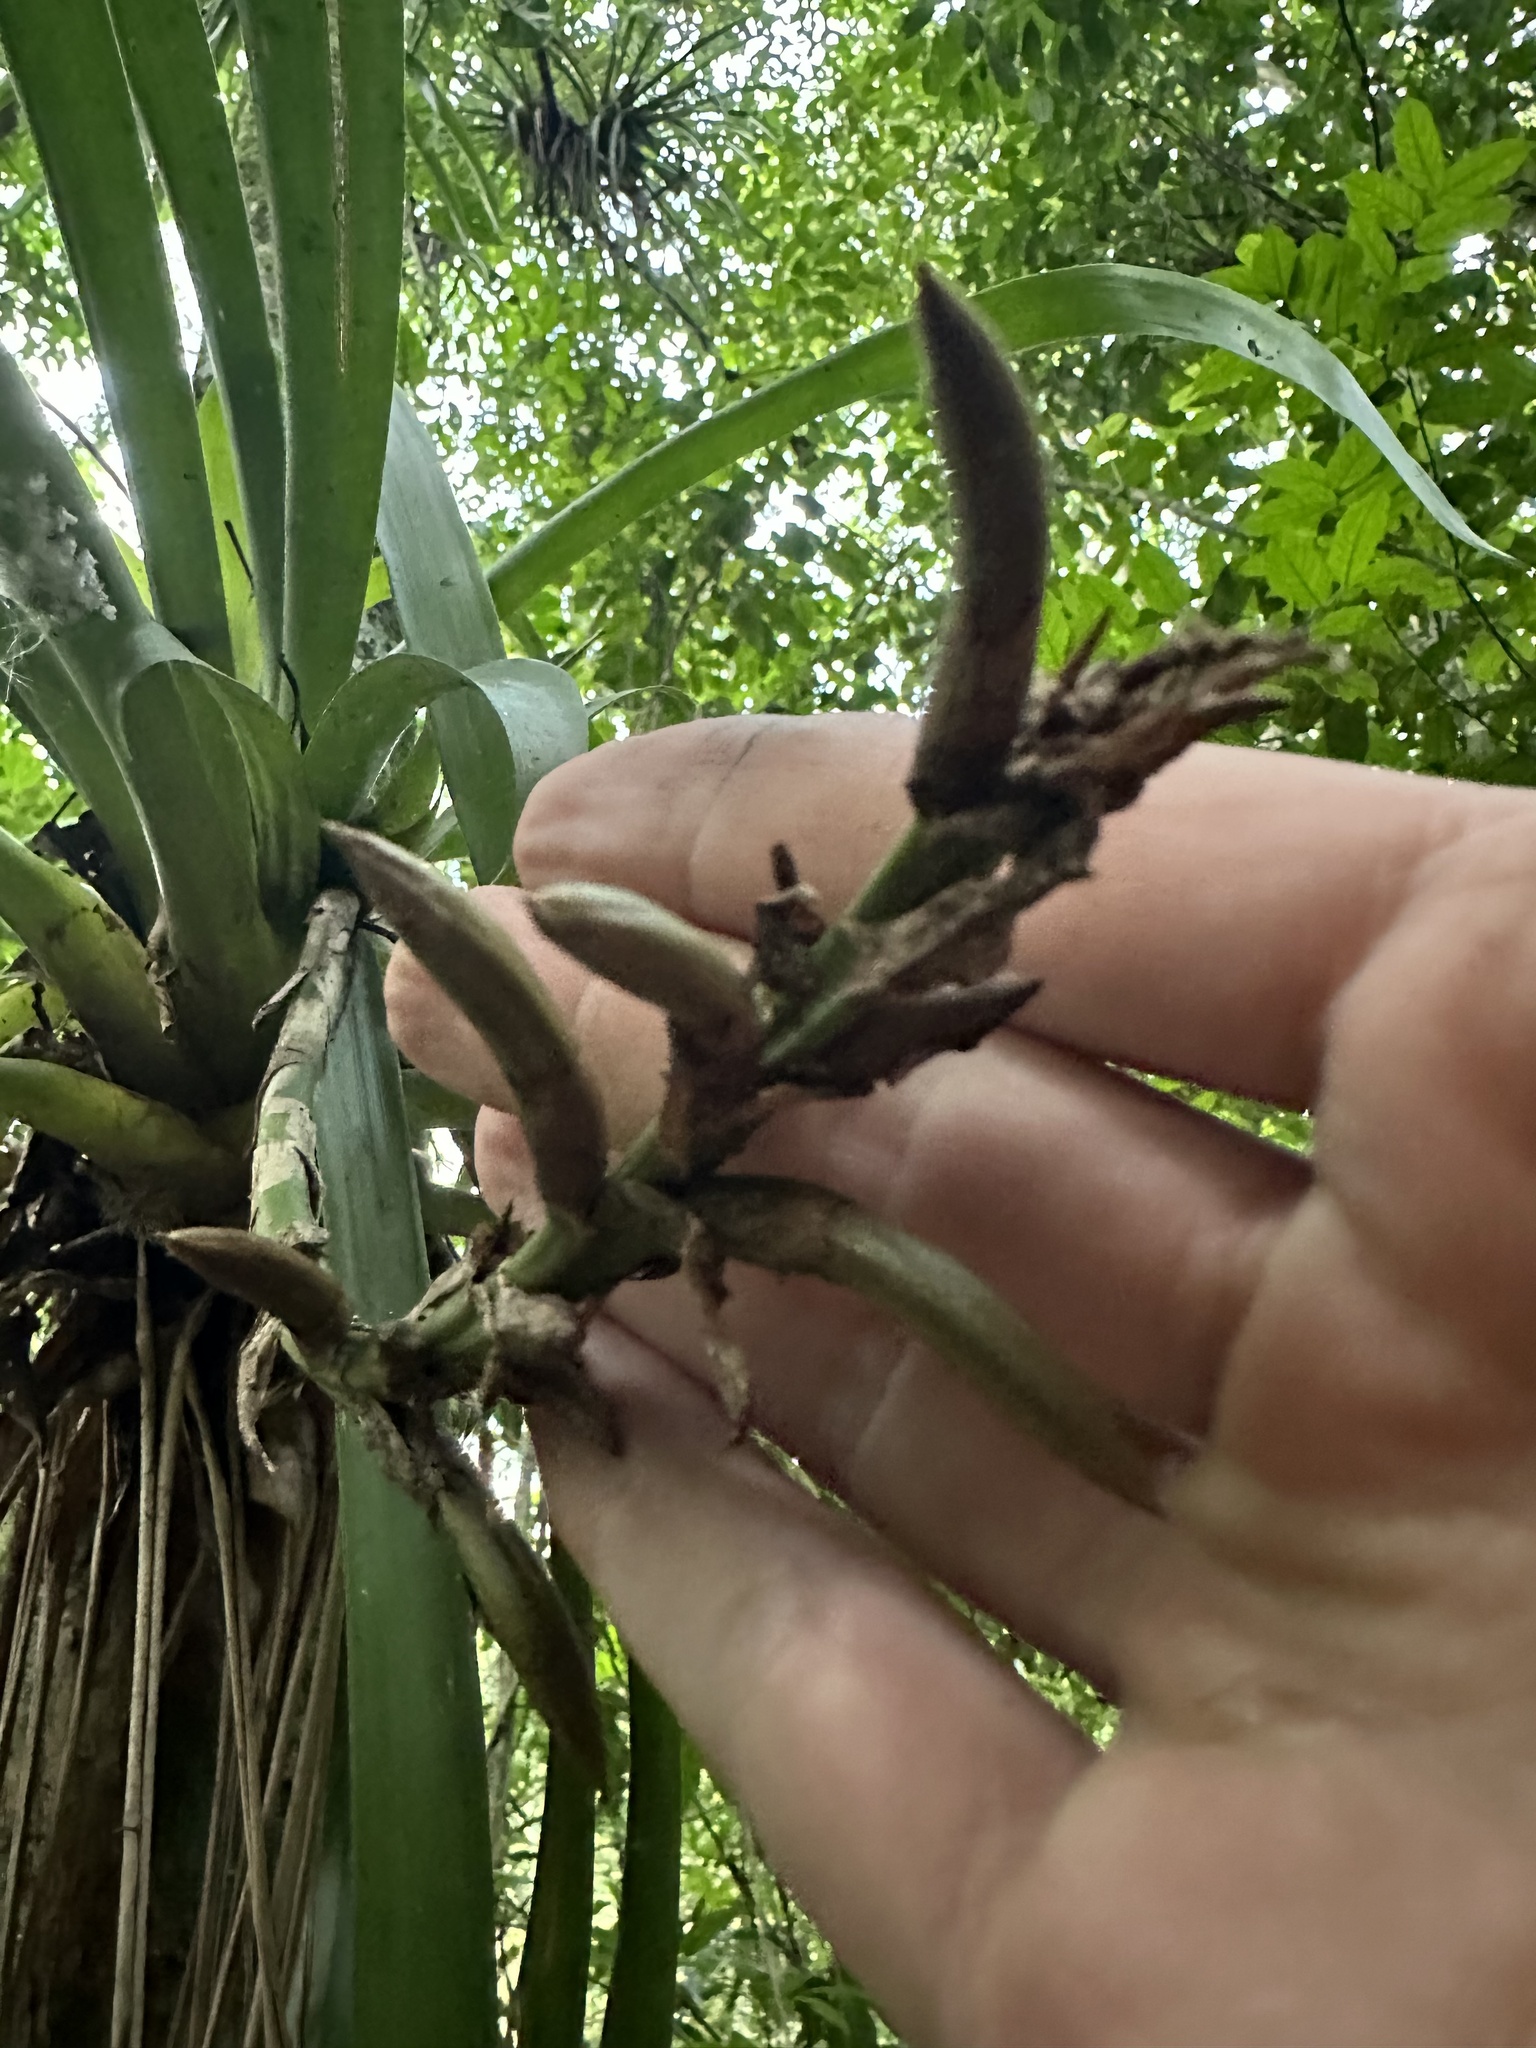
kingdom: Plantae
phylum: Tracheophyta
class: Liliopsida
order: Poales
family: Bromeliaceae
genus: Guzmania
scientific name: Guzmania monostachia
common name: West indian tufted airplant
